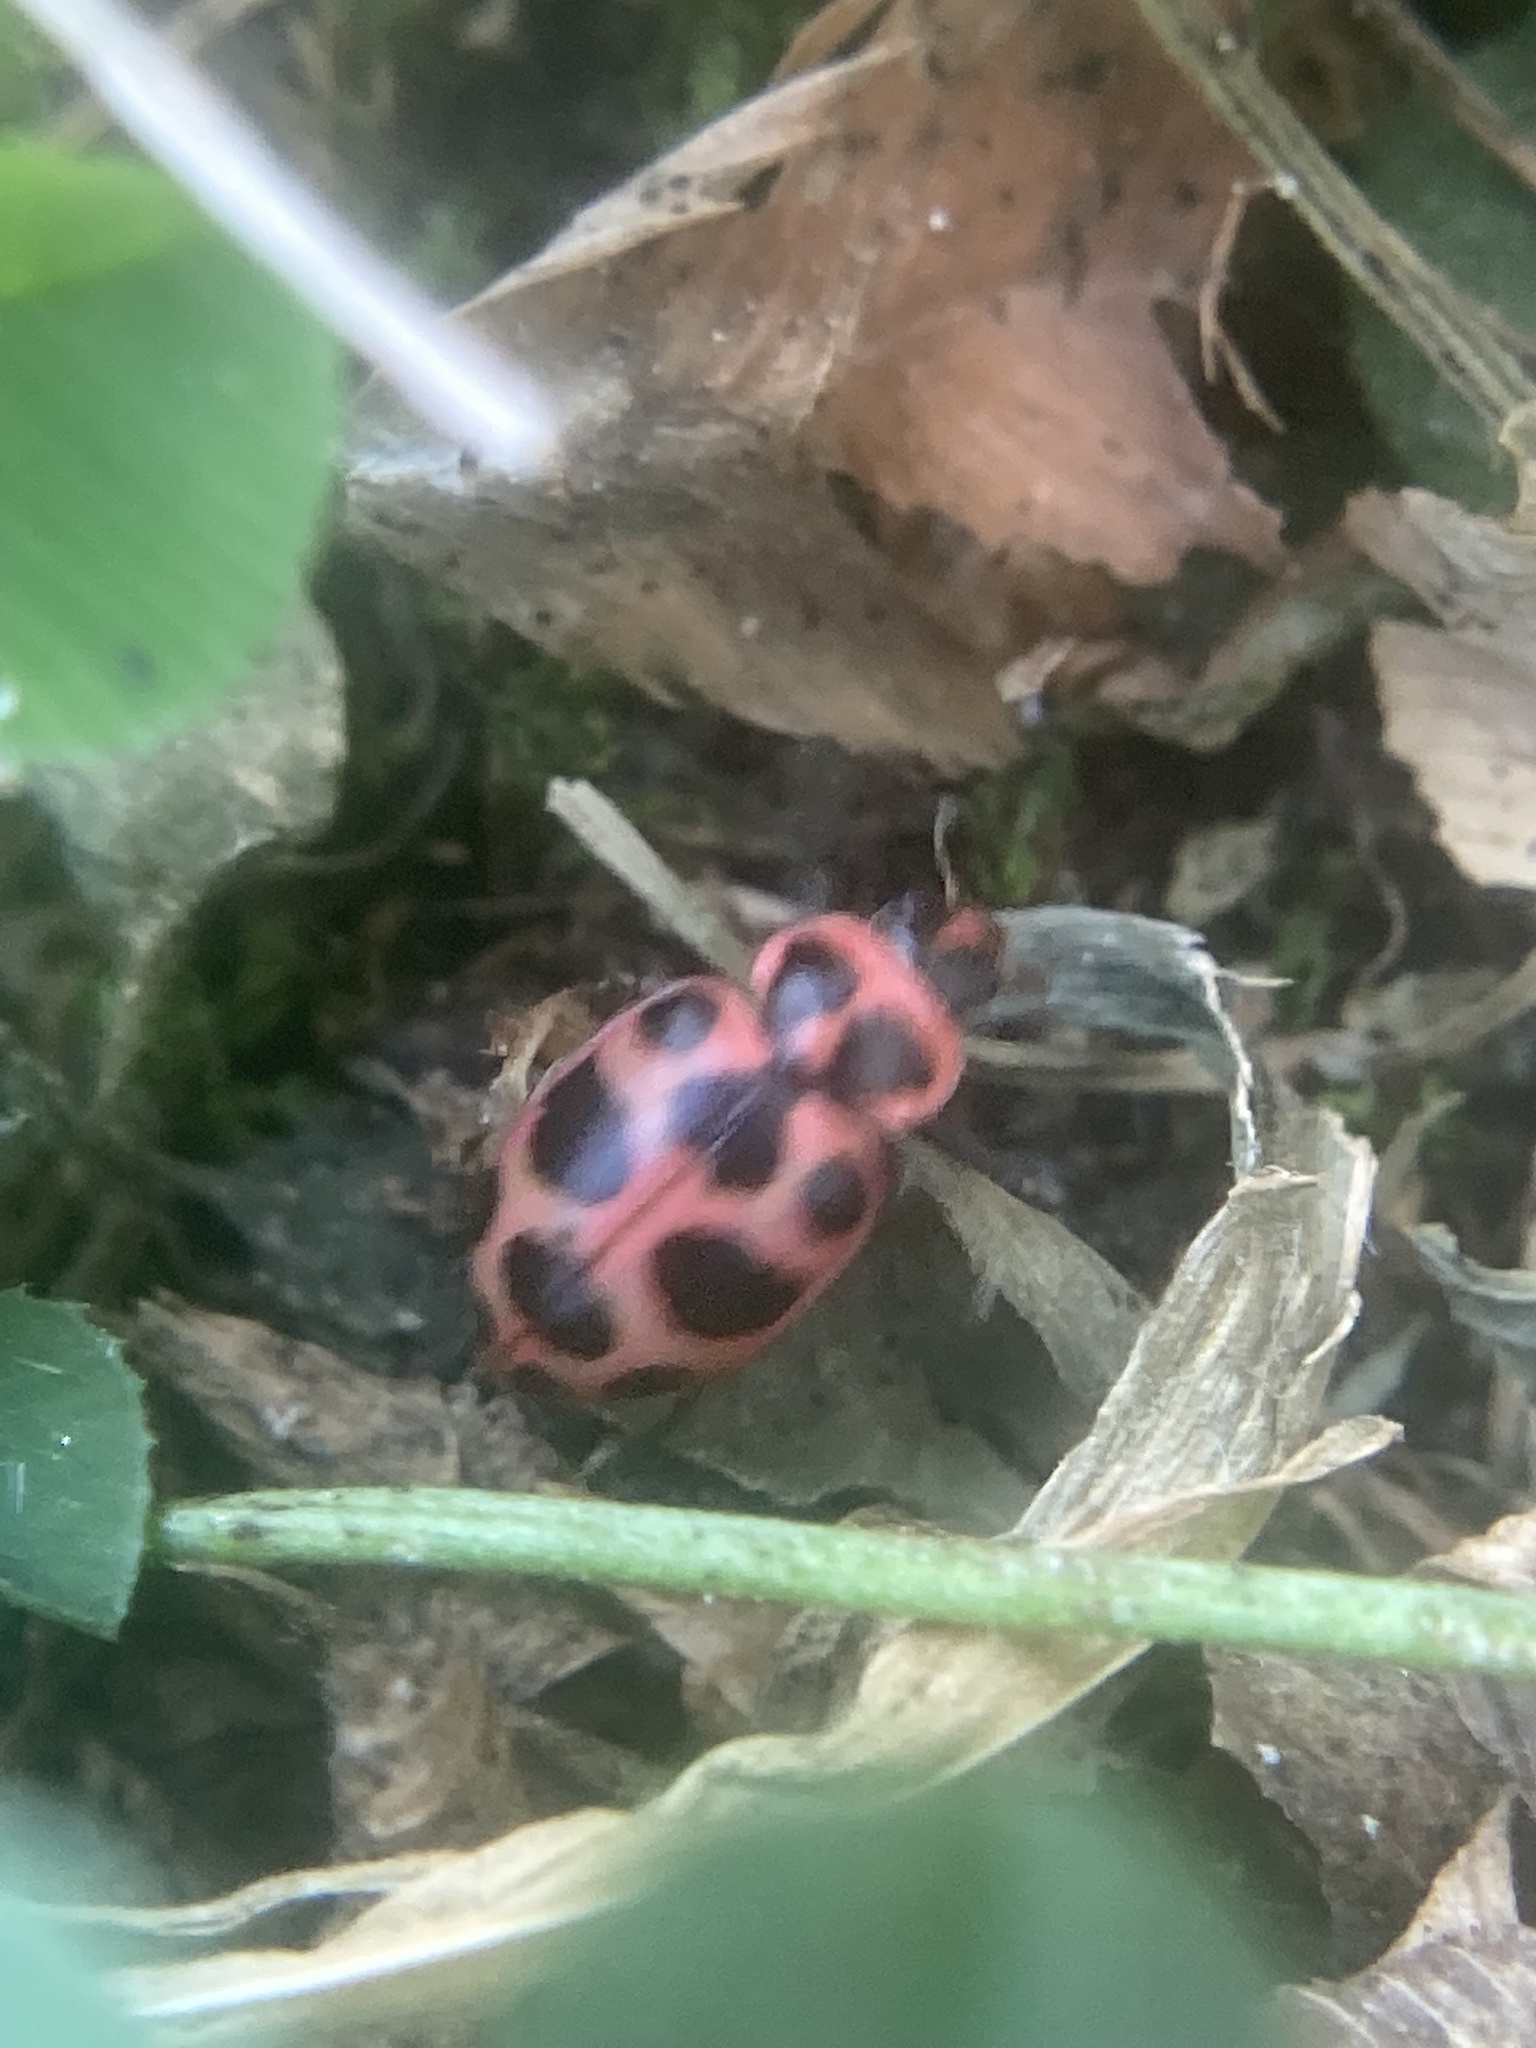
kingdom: Animalia
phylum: Arthropoda
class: Insecta
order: Coleoptera
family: Coccinellidae
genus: Coleomegilla
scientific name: Coleomegilla maculata
